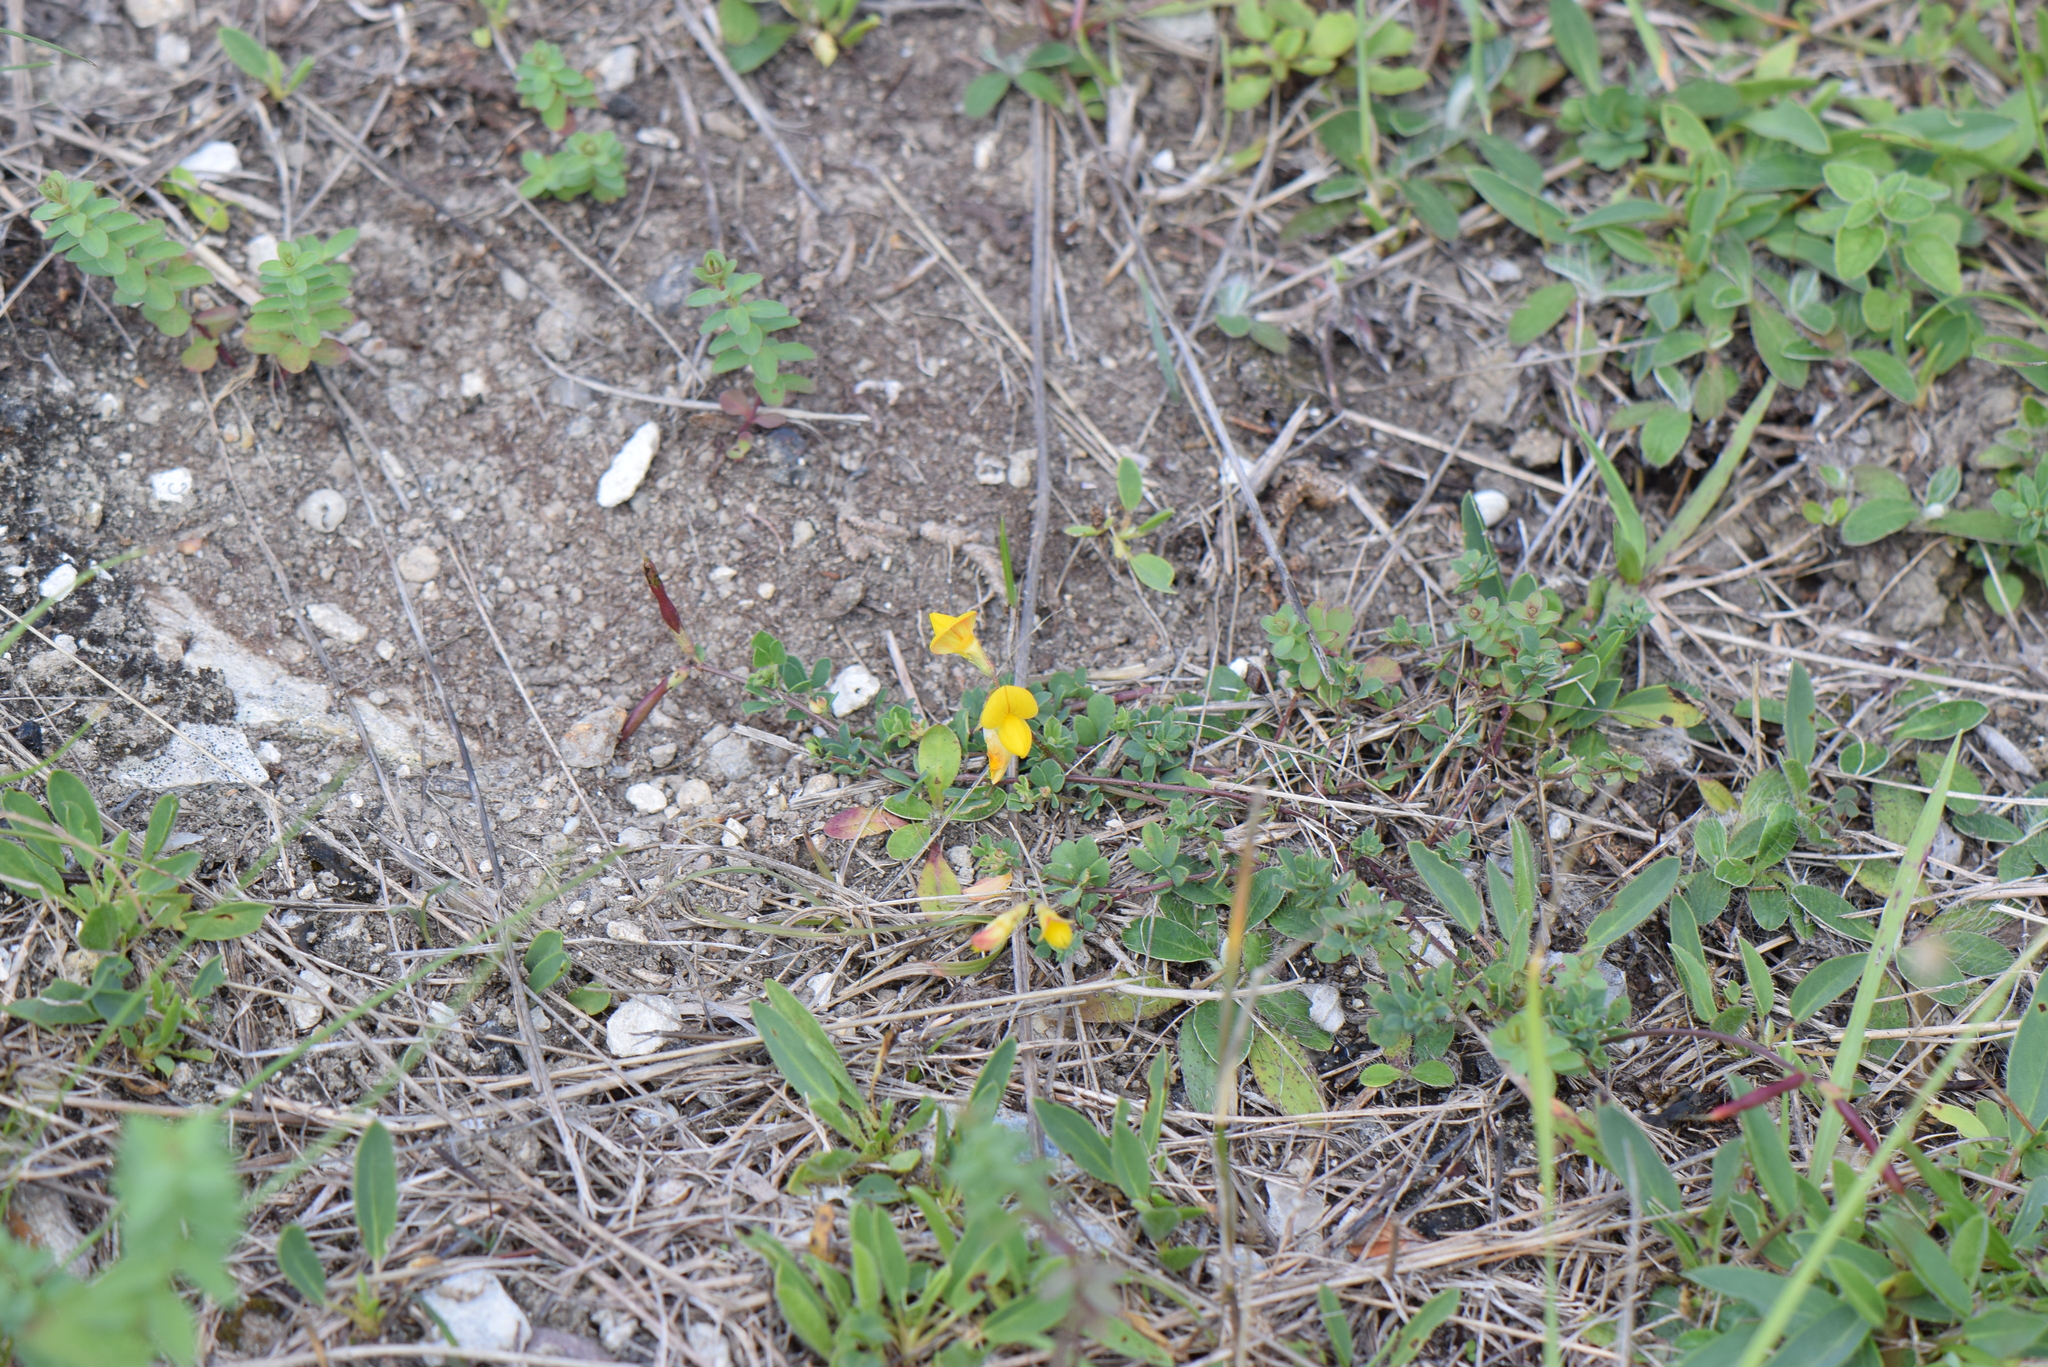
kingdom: Plantae
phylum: Tracheophyta
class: Magnoliopsida
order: Fabales
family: Fabaceae
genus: Lotus
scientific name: Lotus corniculatus
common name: Common bird's-foot-trefoil
